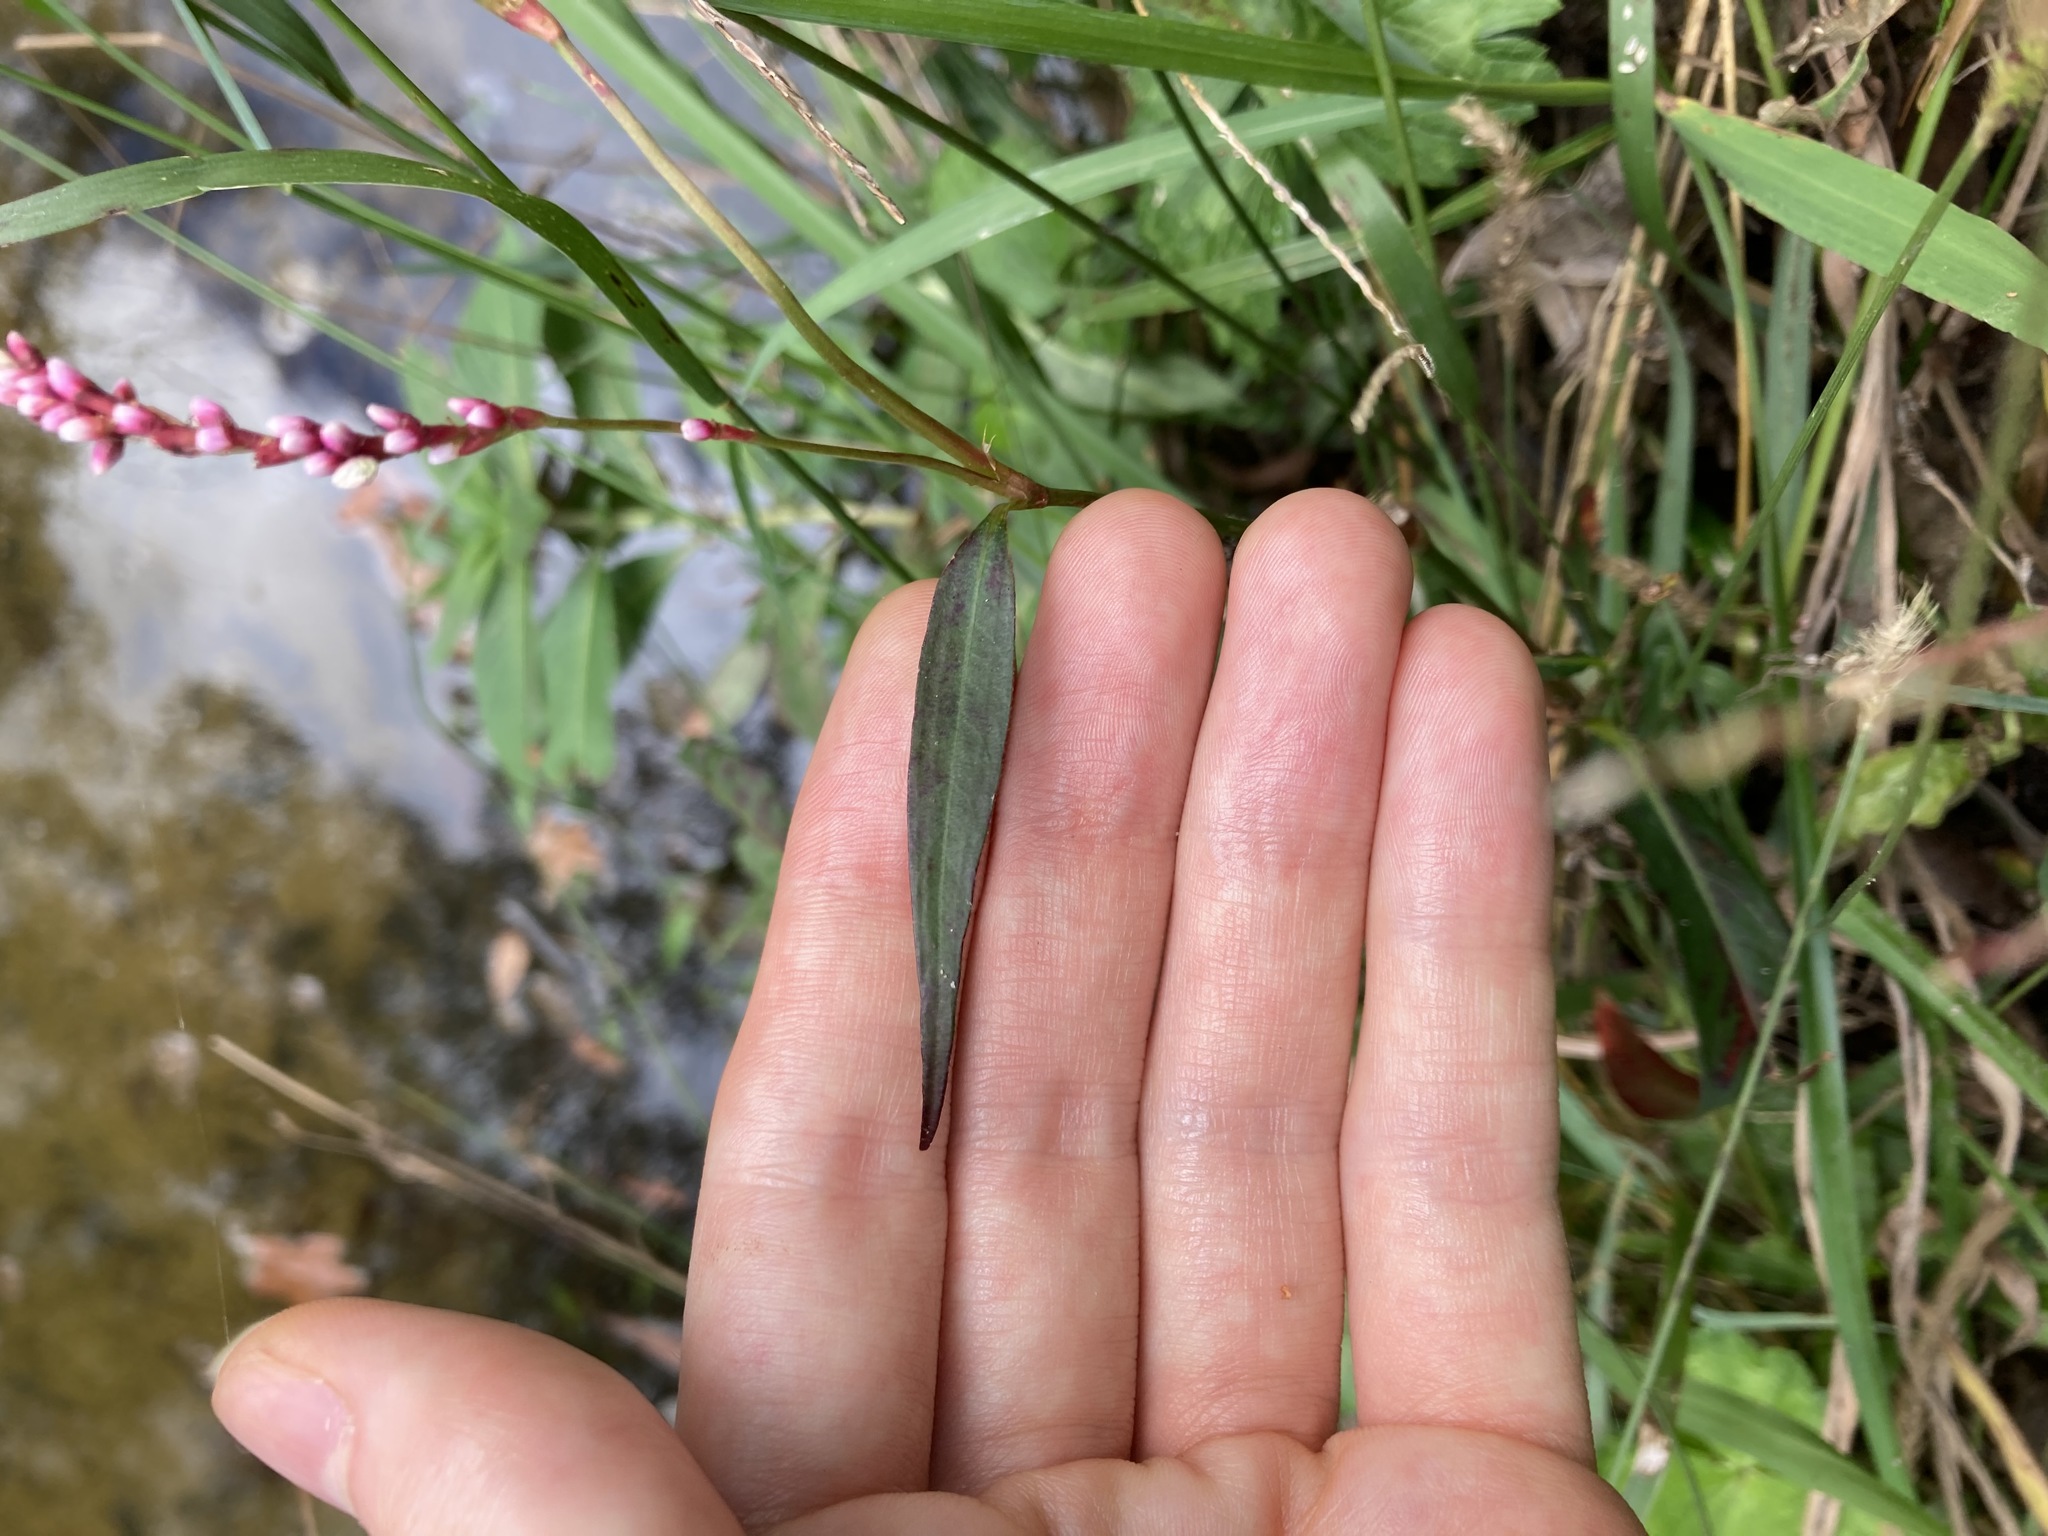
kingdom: Plantae
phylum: Tracheophyta
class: Magnoliopsida
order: Caryophyllales
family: Polygonaceae
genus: Persicaria
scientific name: Persicaria decipiens
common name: Willow-weed
